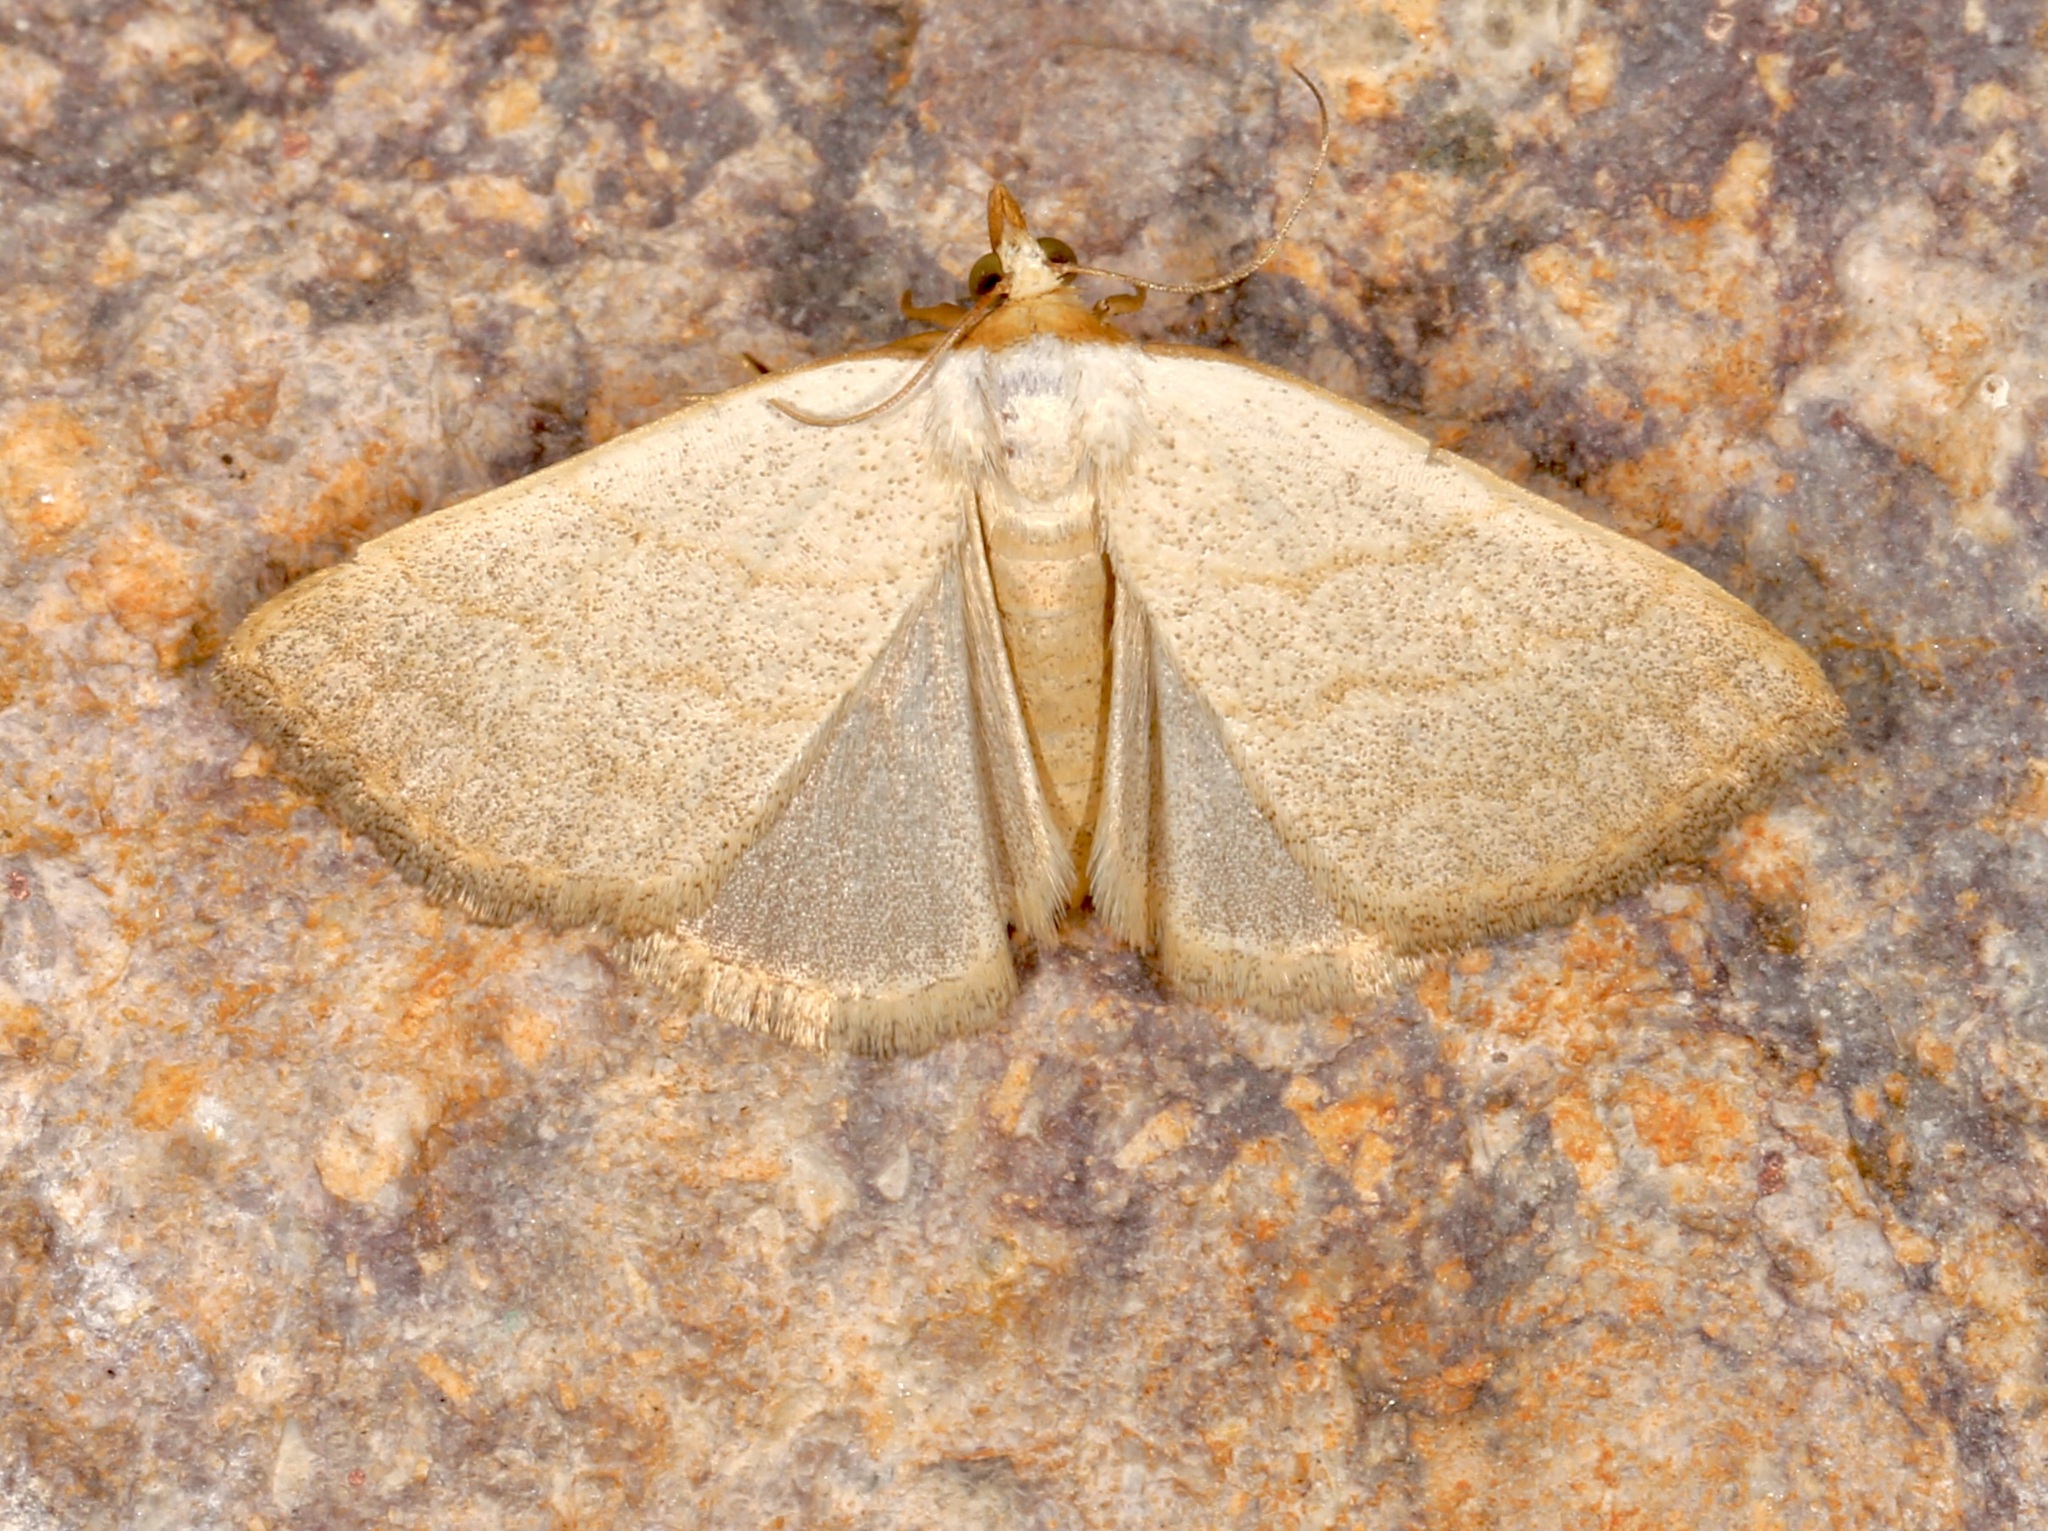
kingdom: Animalia
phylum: Arthropoda
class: Insecta
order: Lepidoptera
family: Erebidae
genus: Oxycilla
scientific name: Oxycilla tripla
